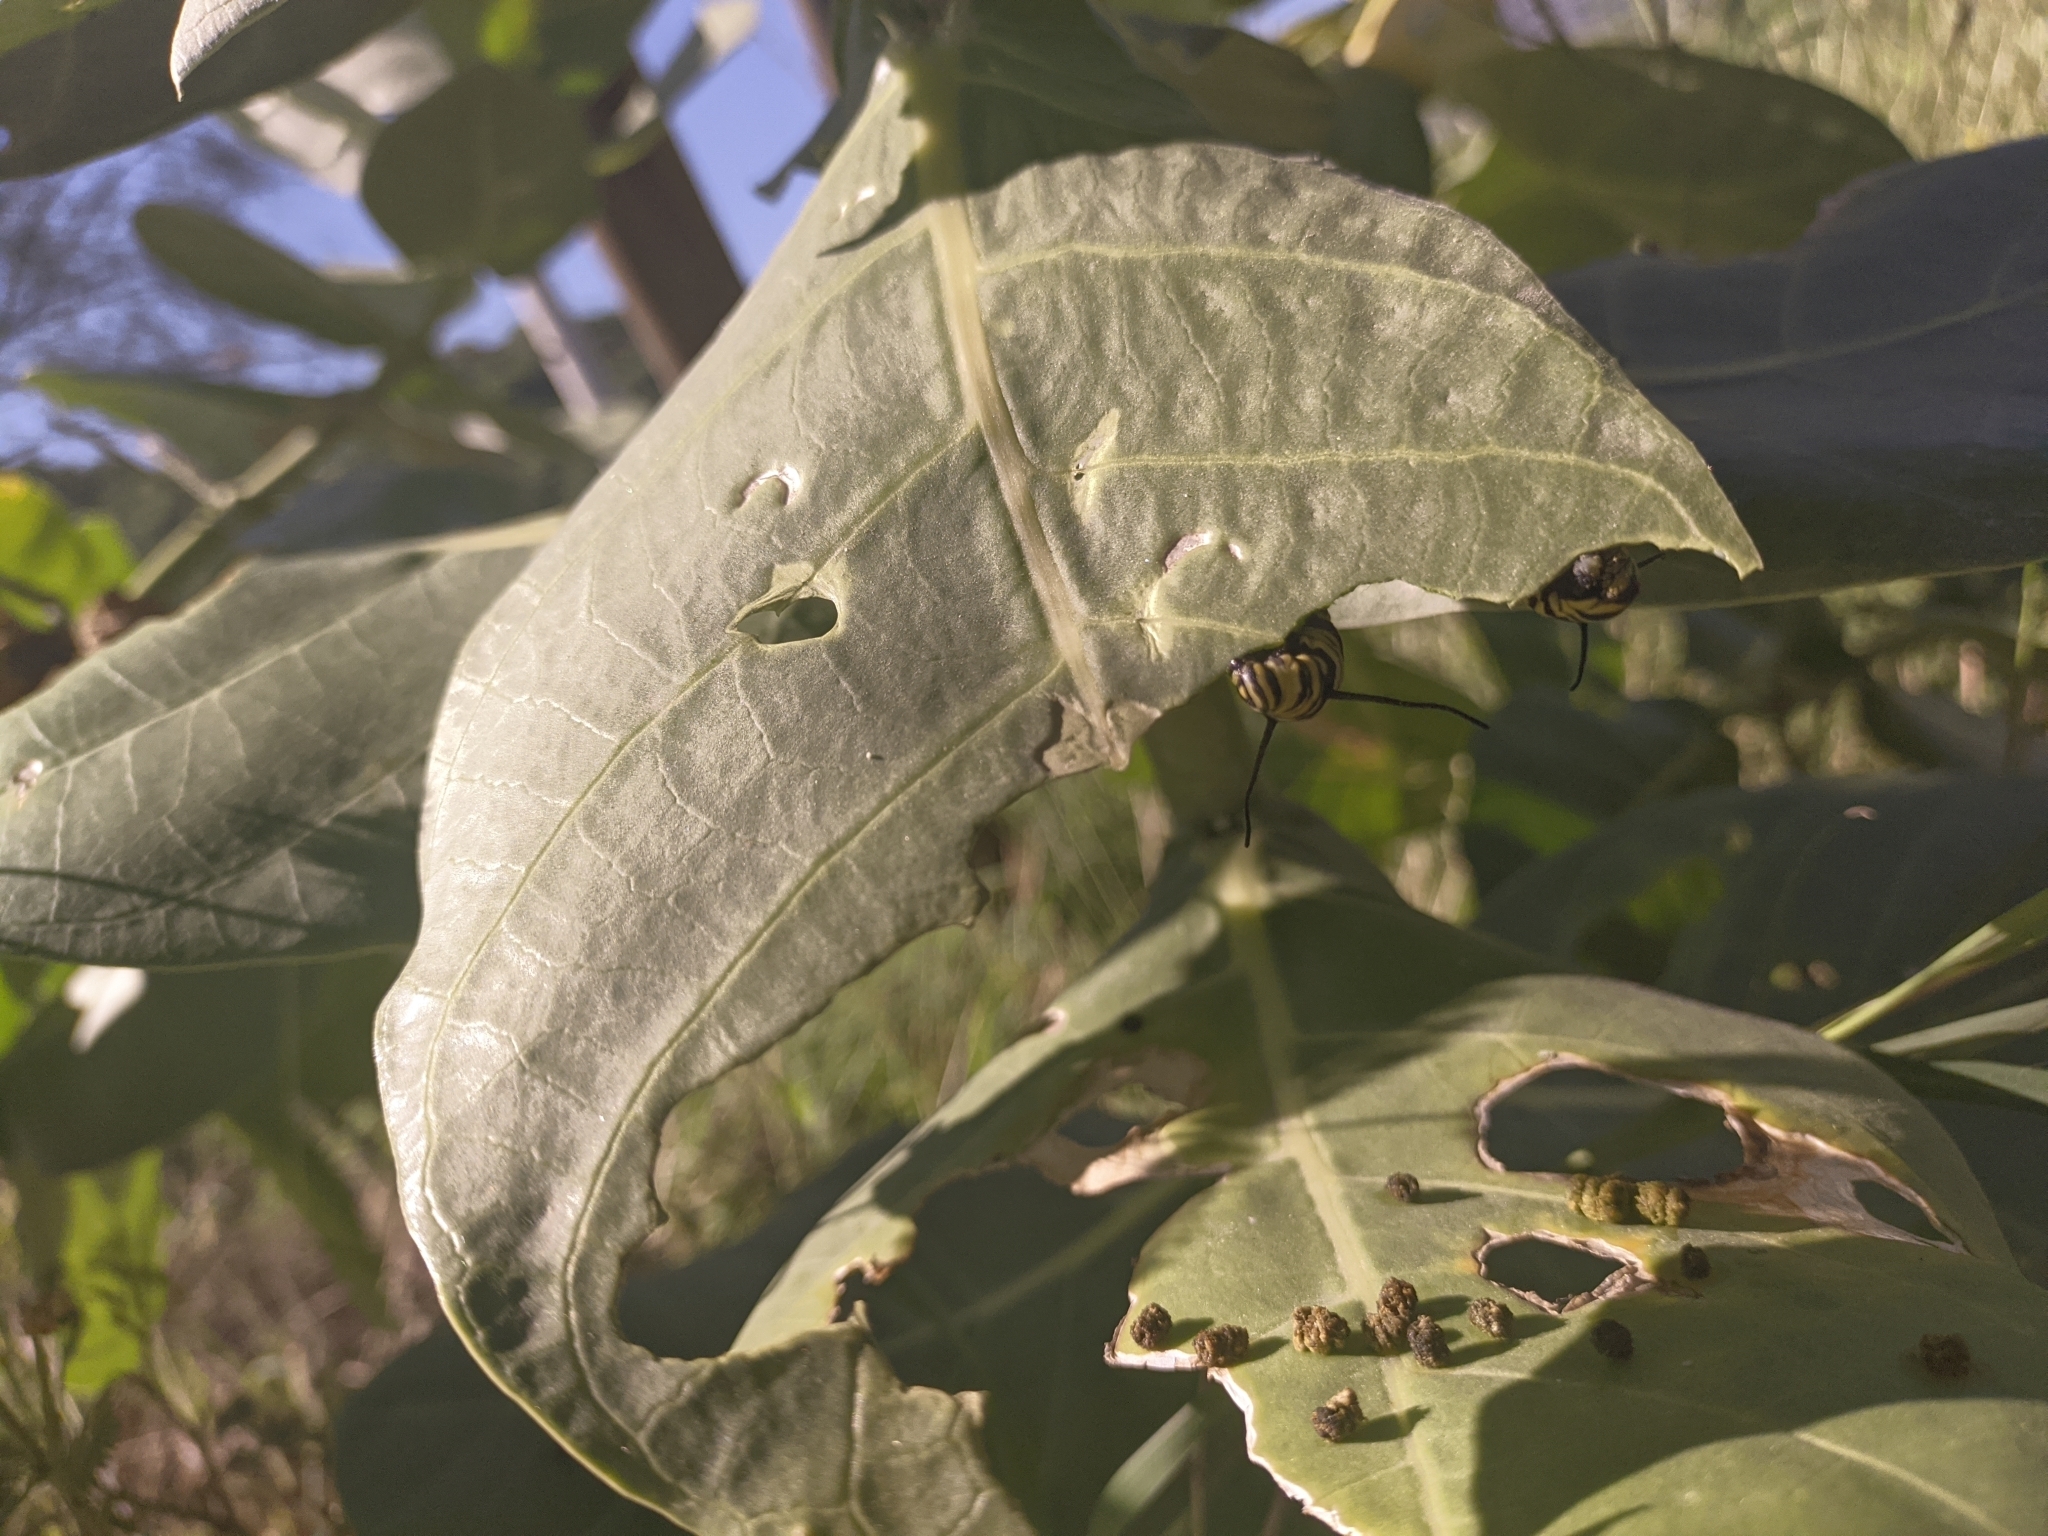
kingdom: Animalia
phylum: Arthropoda
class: Insecta
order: Lepidoptera
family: Nymphalidae
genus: Danaus
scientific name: Danaus plexippus
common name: Monarch
